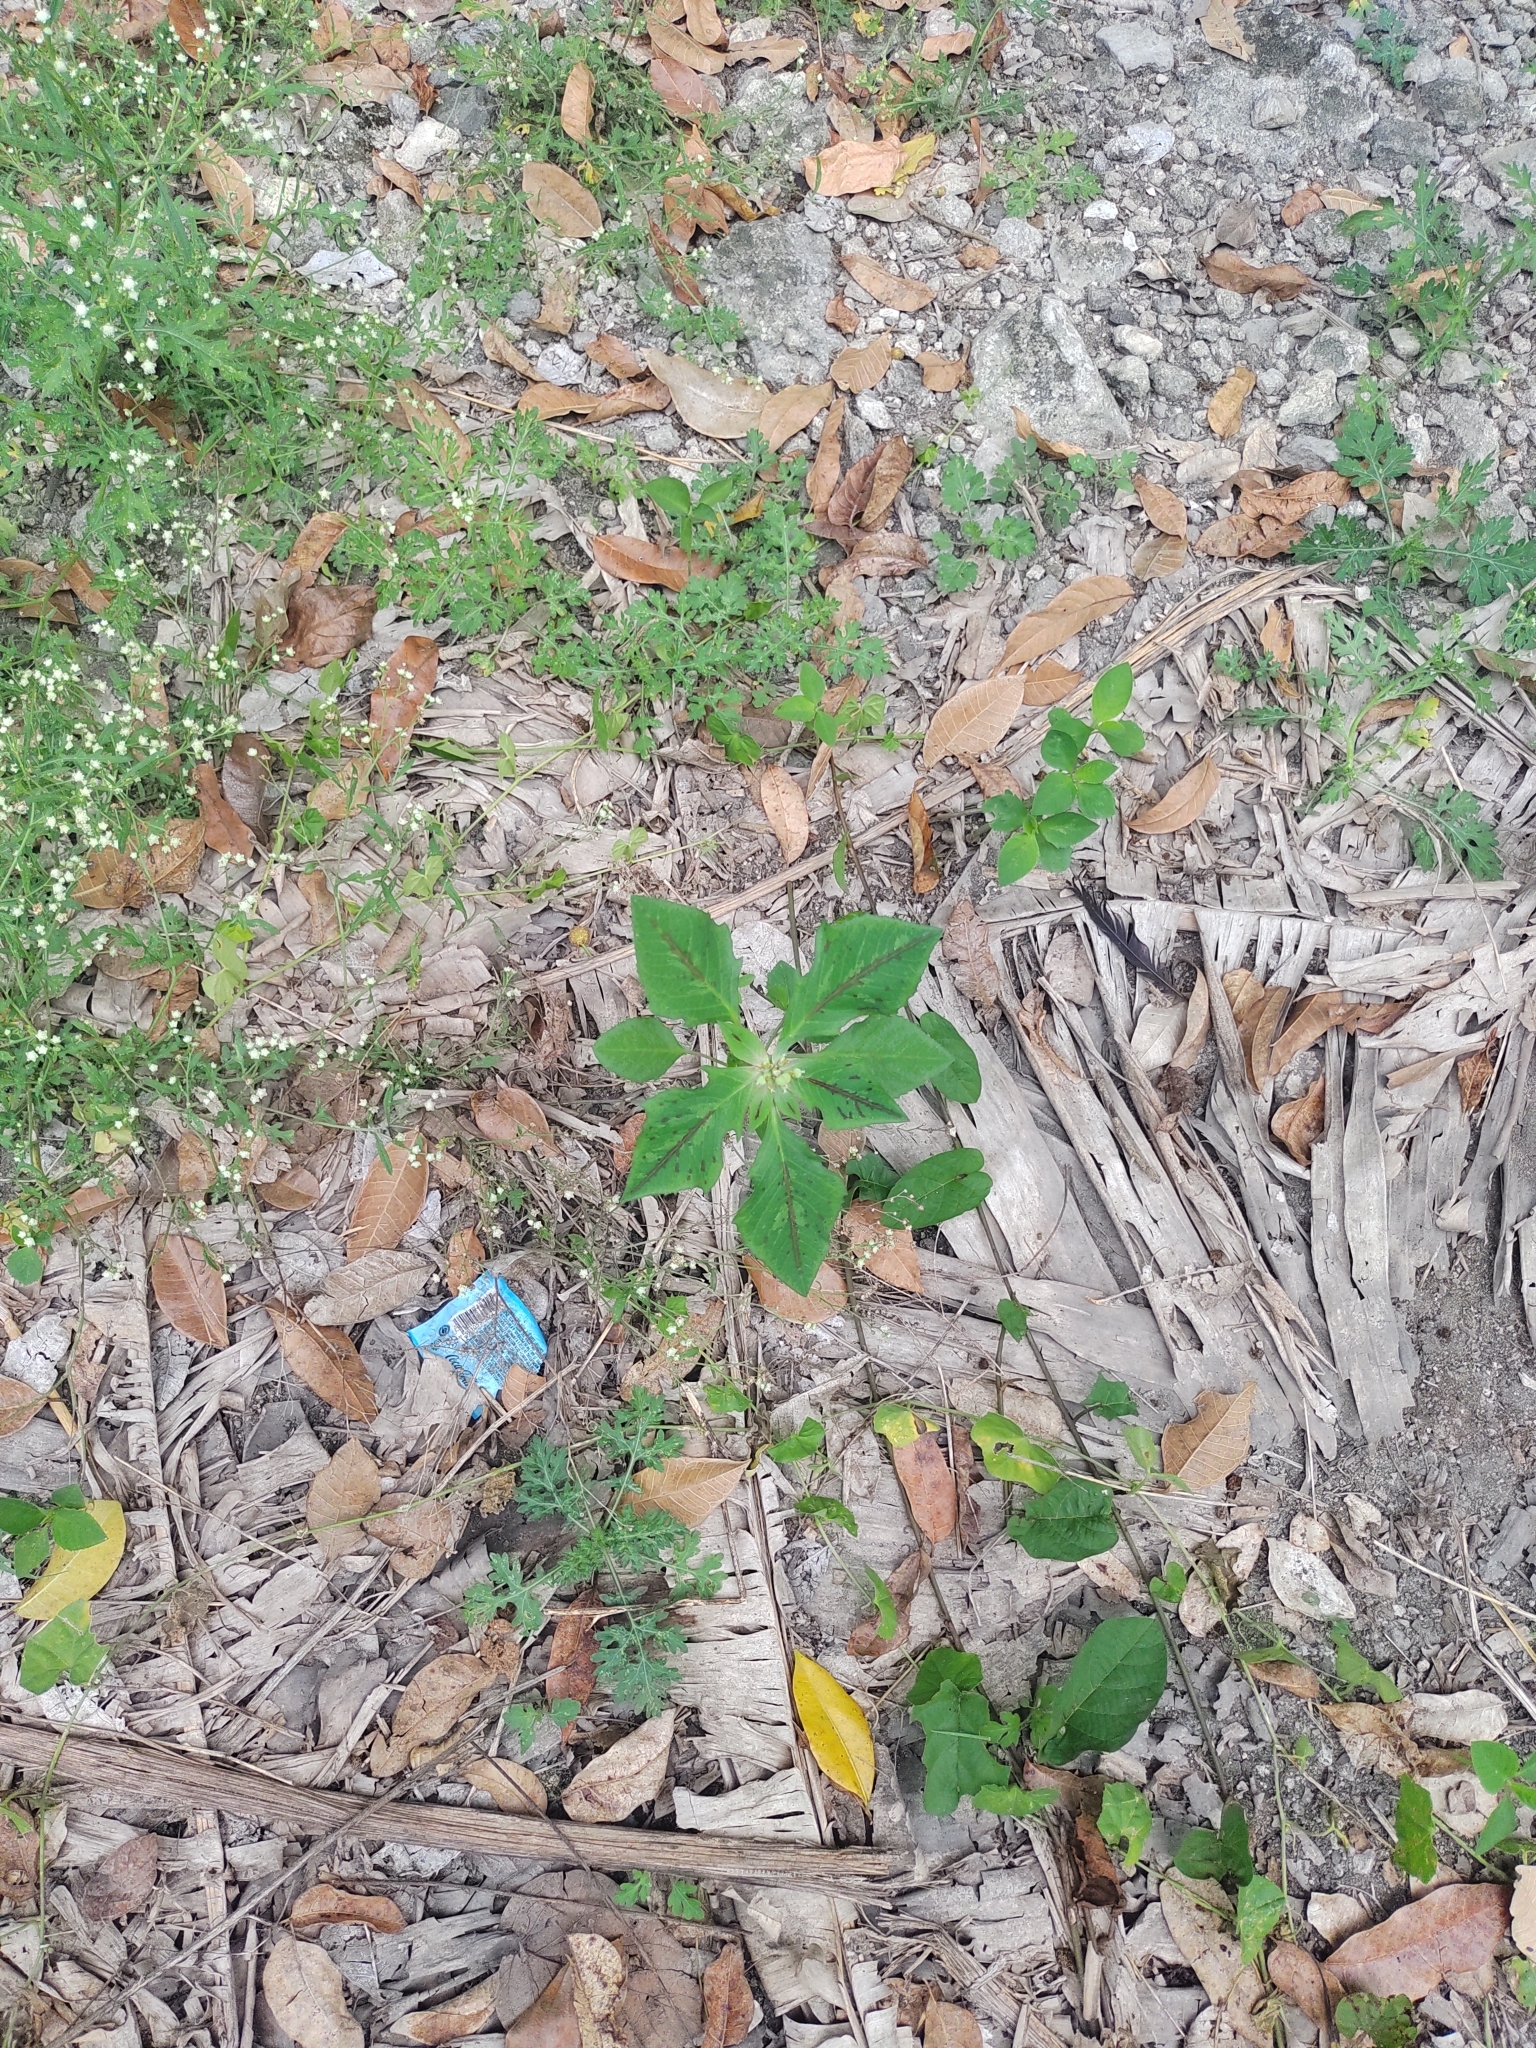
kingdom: Plantae
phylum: Tracheophyta
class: Magnoliopsida
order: Malpighiales
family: Euphorbiaceae
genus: Euphorbia
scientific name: Euphorbia heterophylla
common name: Mexican fireplant
